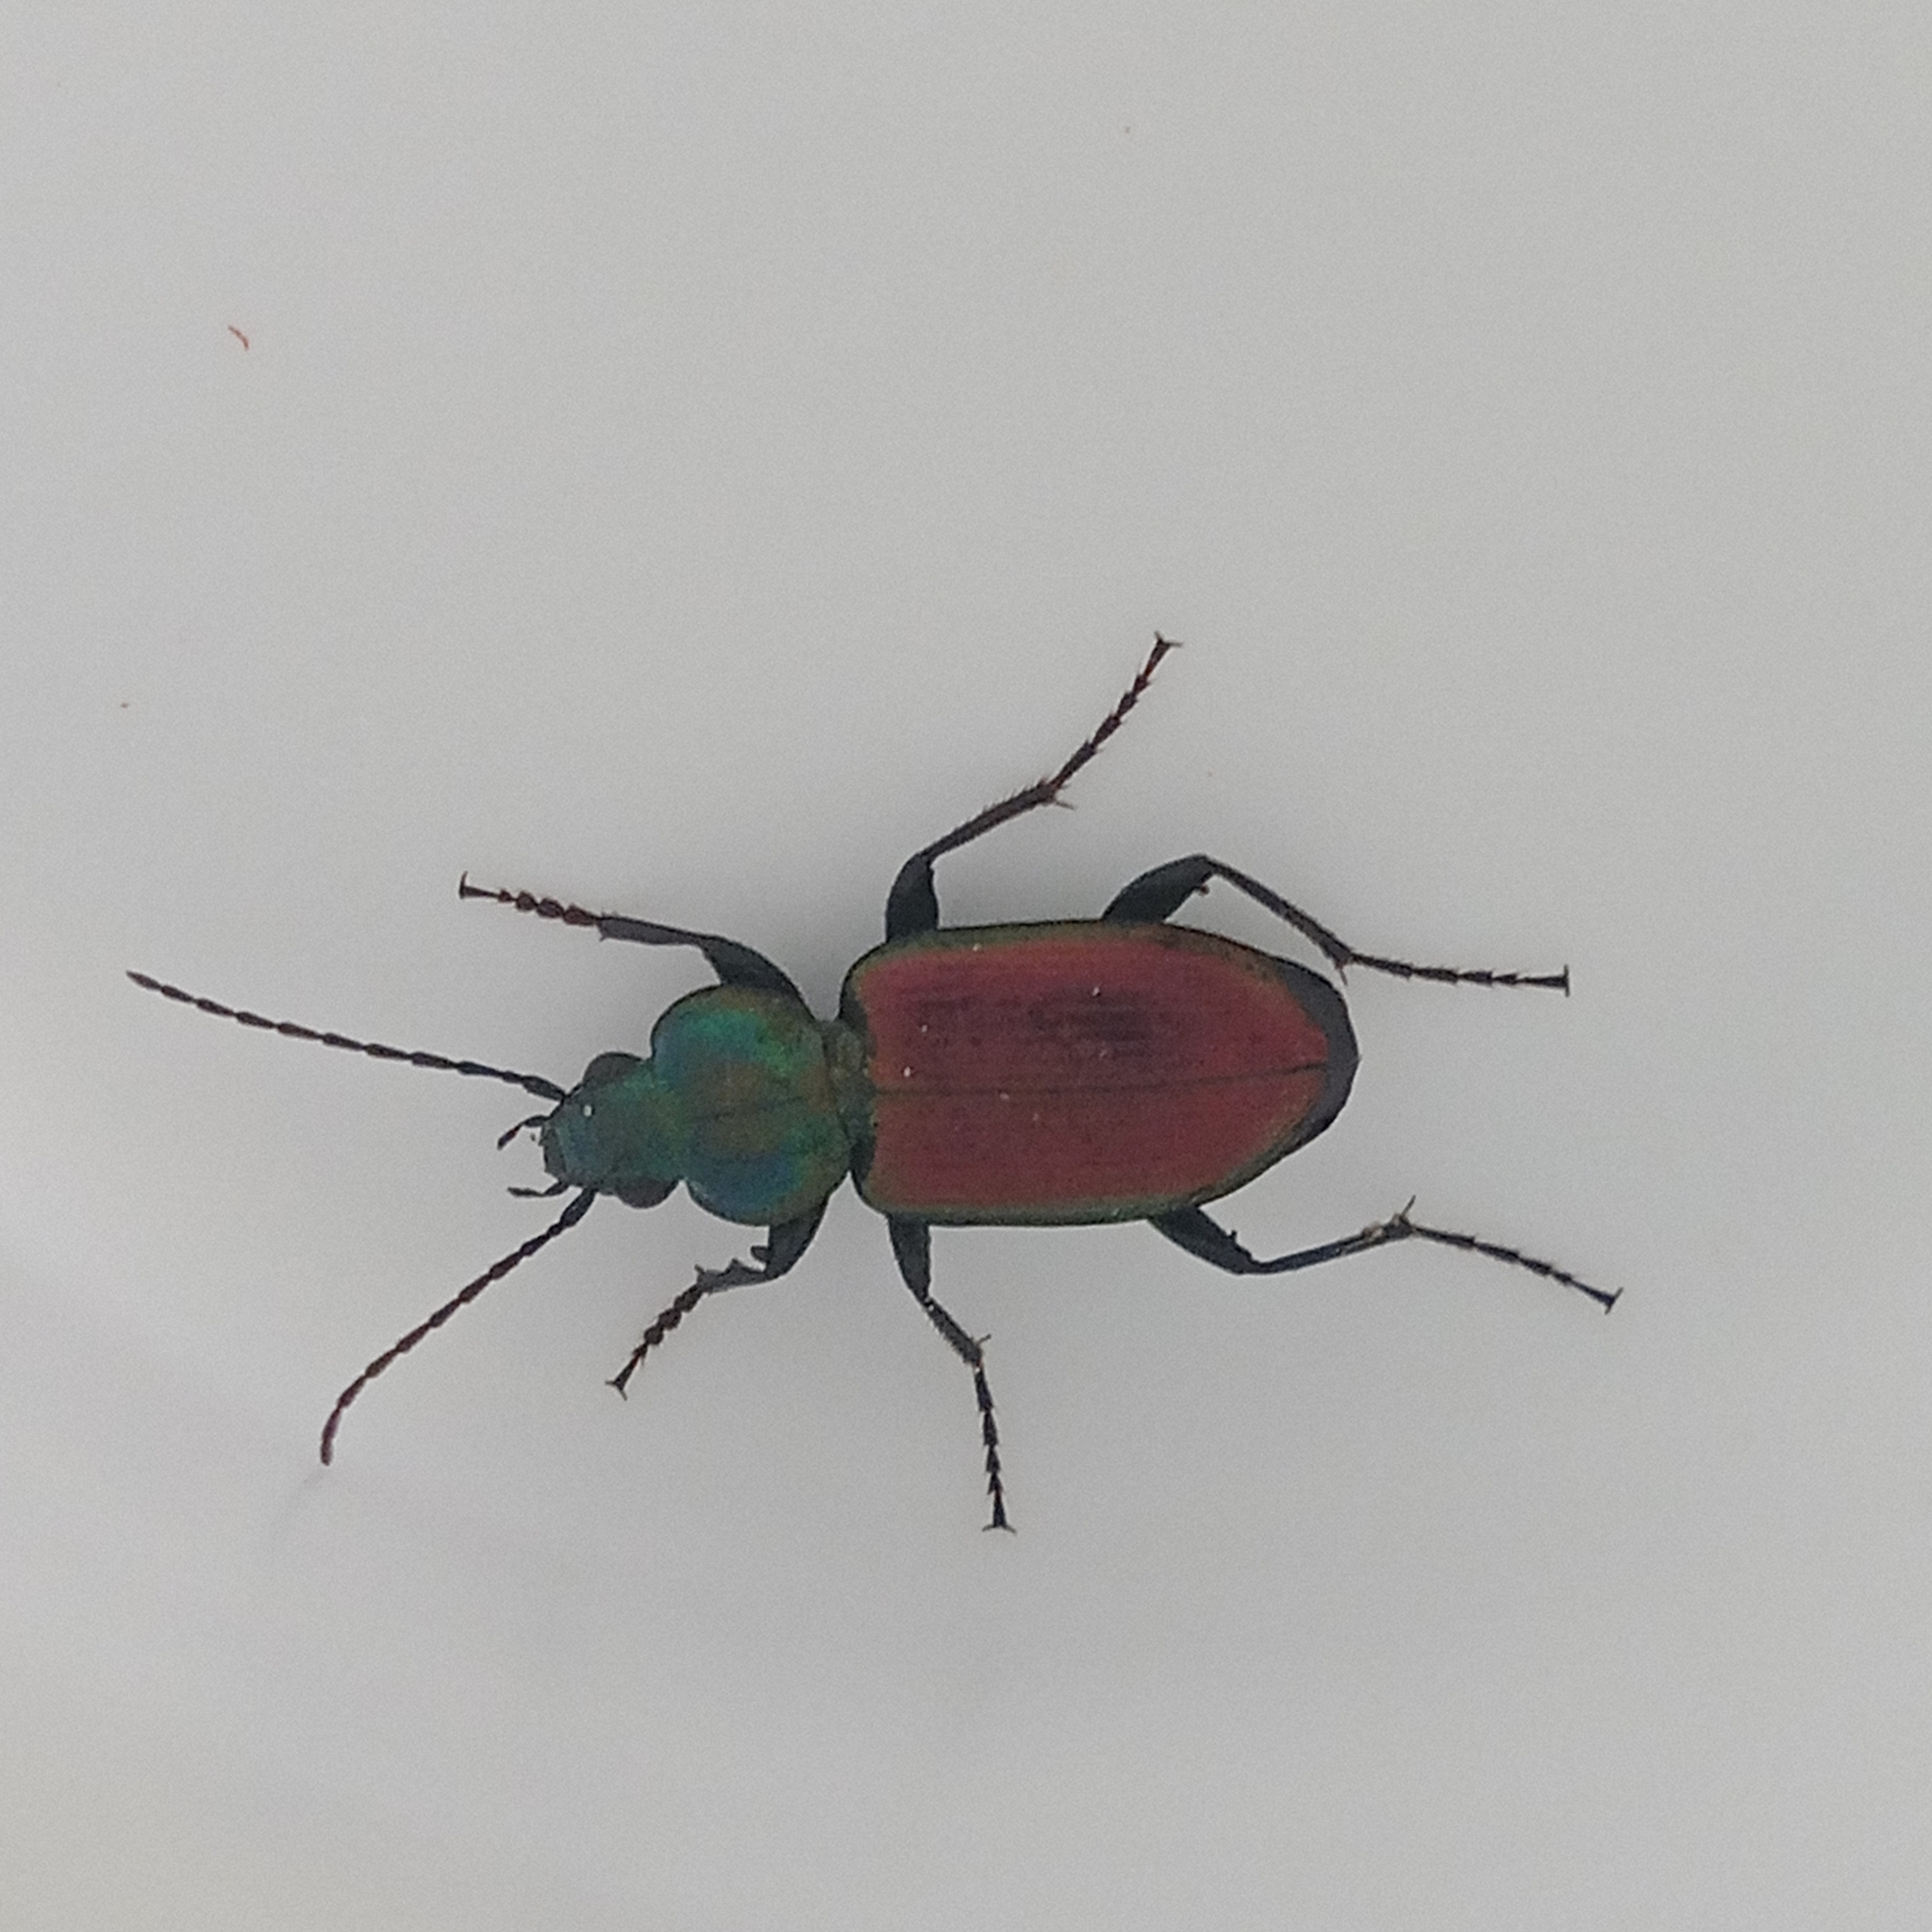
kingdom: Animalia
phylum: Arthropoda
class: Insecta
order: Coleoptera
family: Carabidae
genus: Agonum
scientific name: Agonum sexpunctatum
